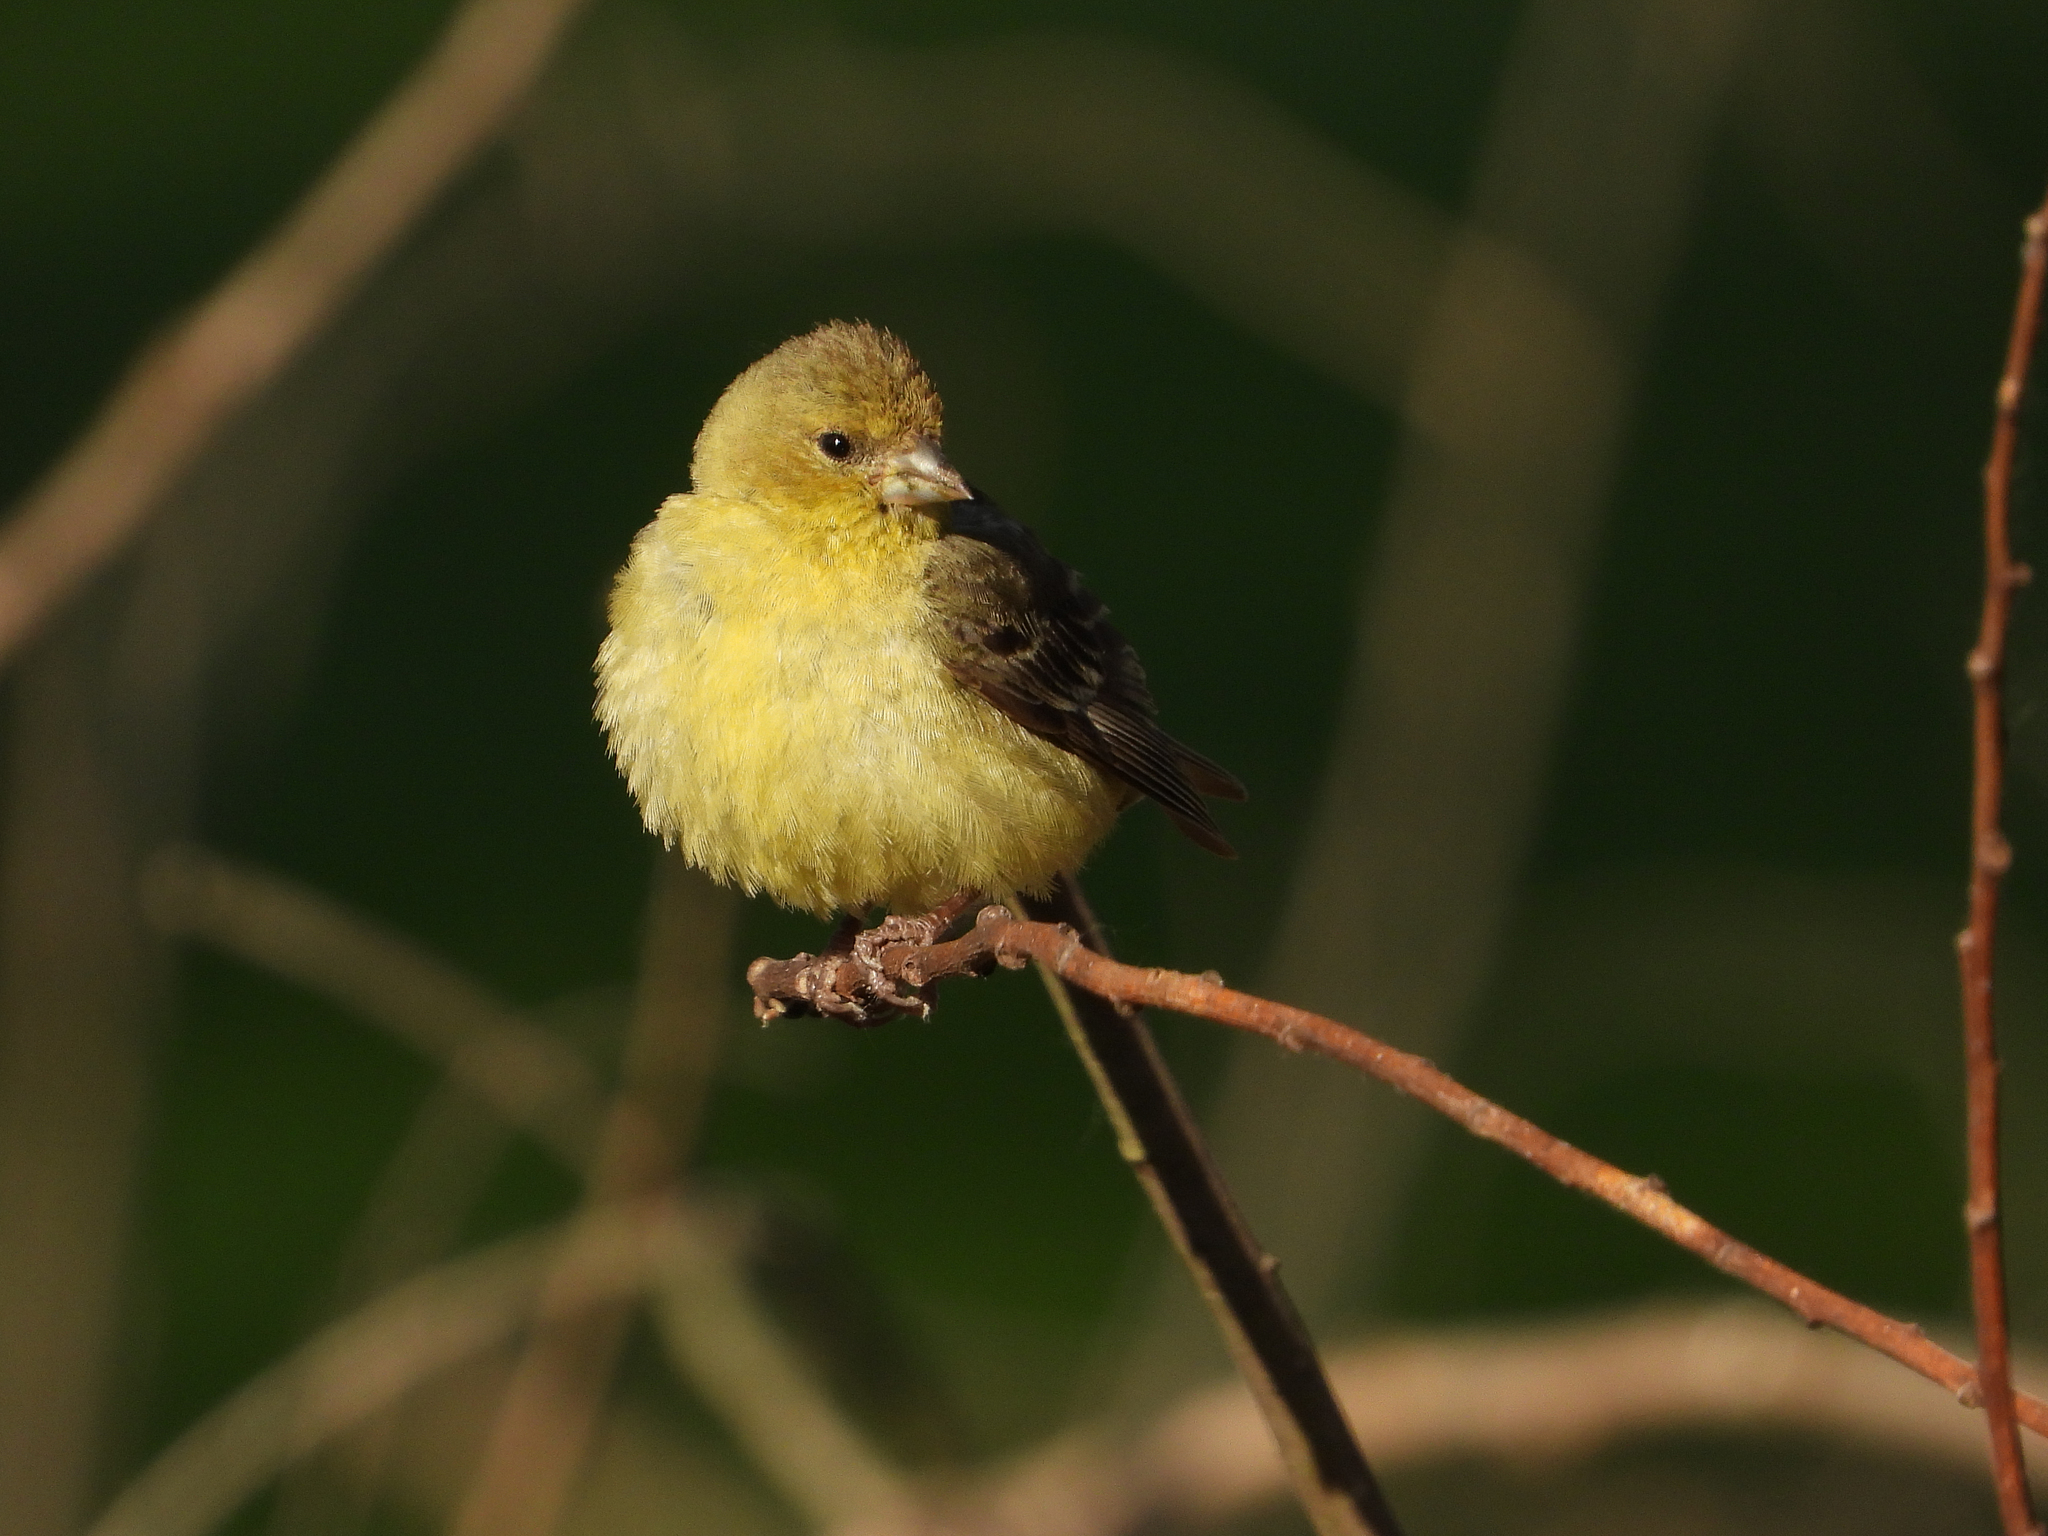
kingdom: Animalia
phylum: Chordata
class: Aves
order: Passeriformes
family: Fringillidae
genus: Spinus
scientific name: Spinus psaltria
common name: Lesser goldfinch
